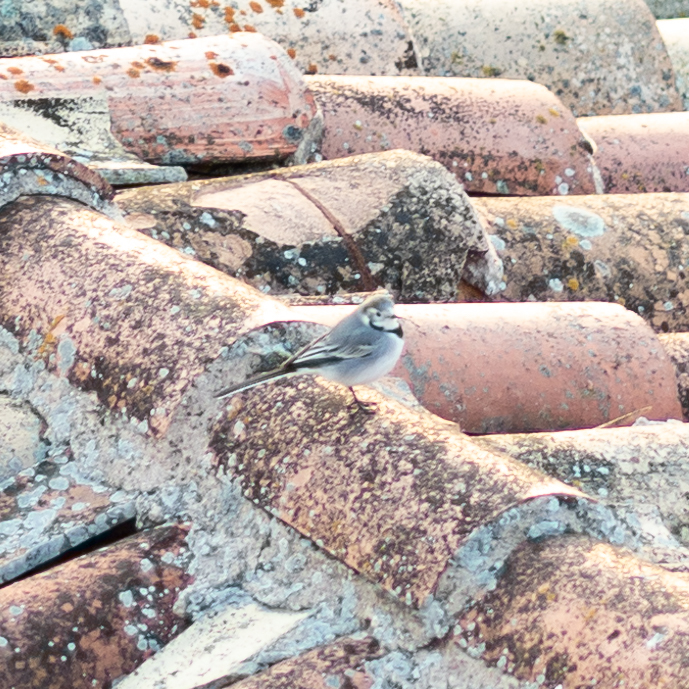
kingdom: Animalia
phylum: Chordata
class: Aves
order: Passeriformes
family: Motacillidae
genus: Motacilla
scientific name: Motacilla alba
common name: White wagtail
